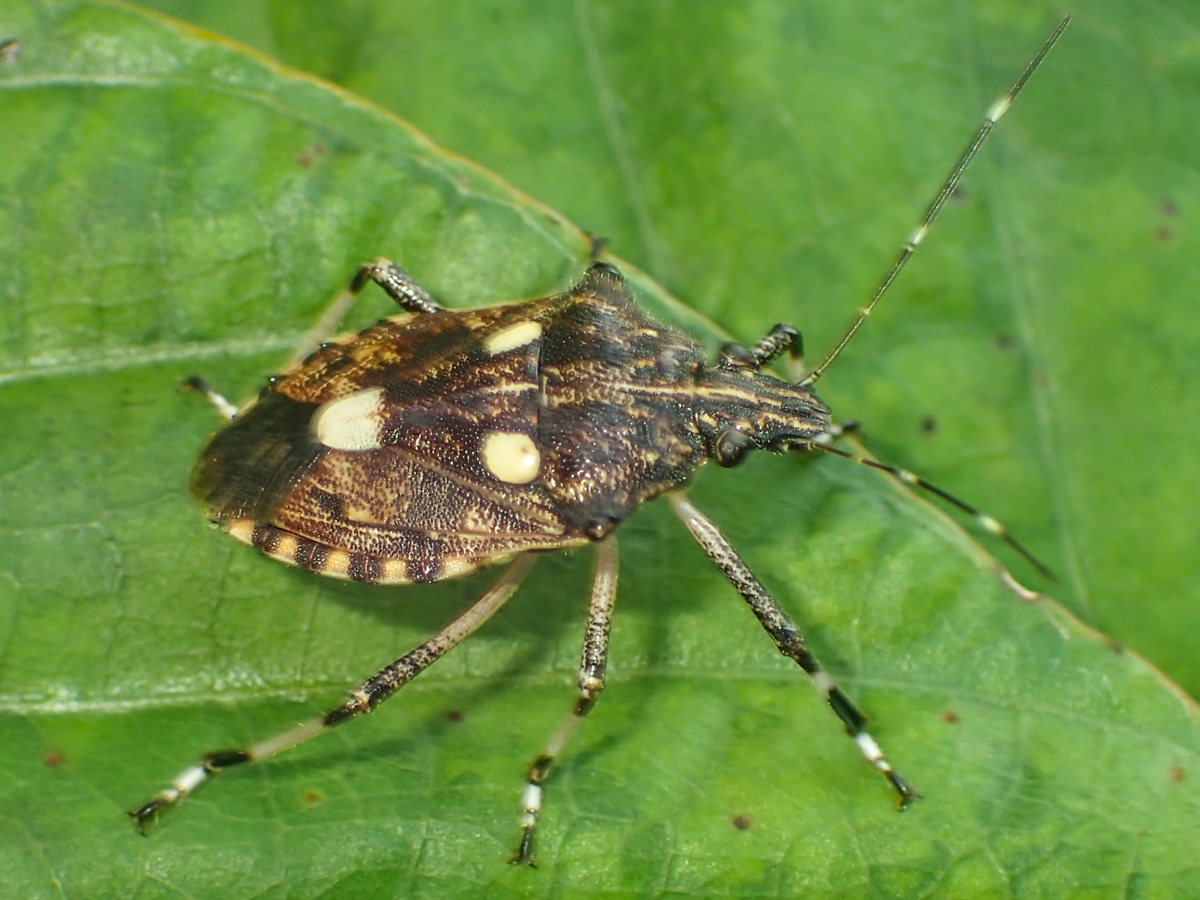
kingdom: Animalia
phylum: Arthropoda
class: Insecta
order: Hemiptera
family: Pentatomidae
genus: Dalpada
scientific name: Dalpada oculata
